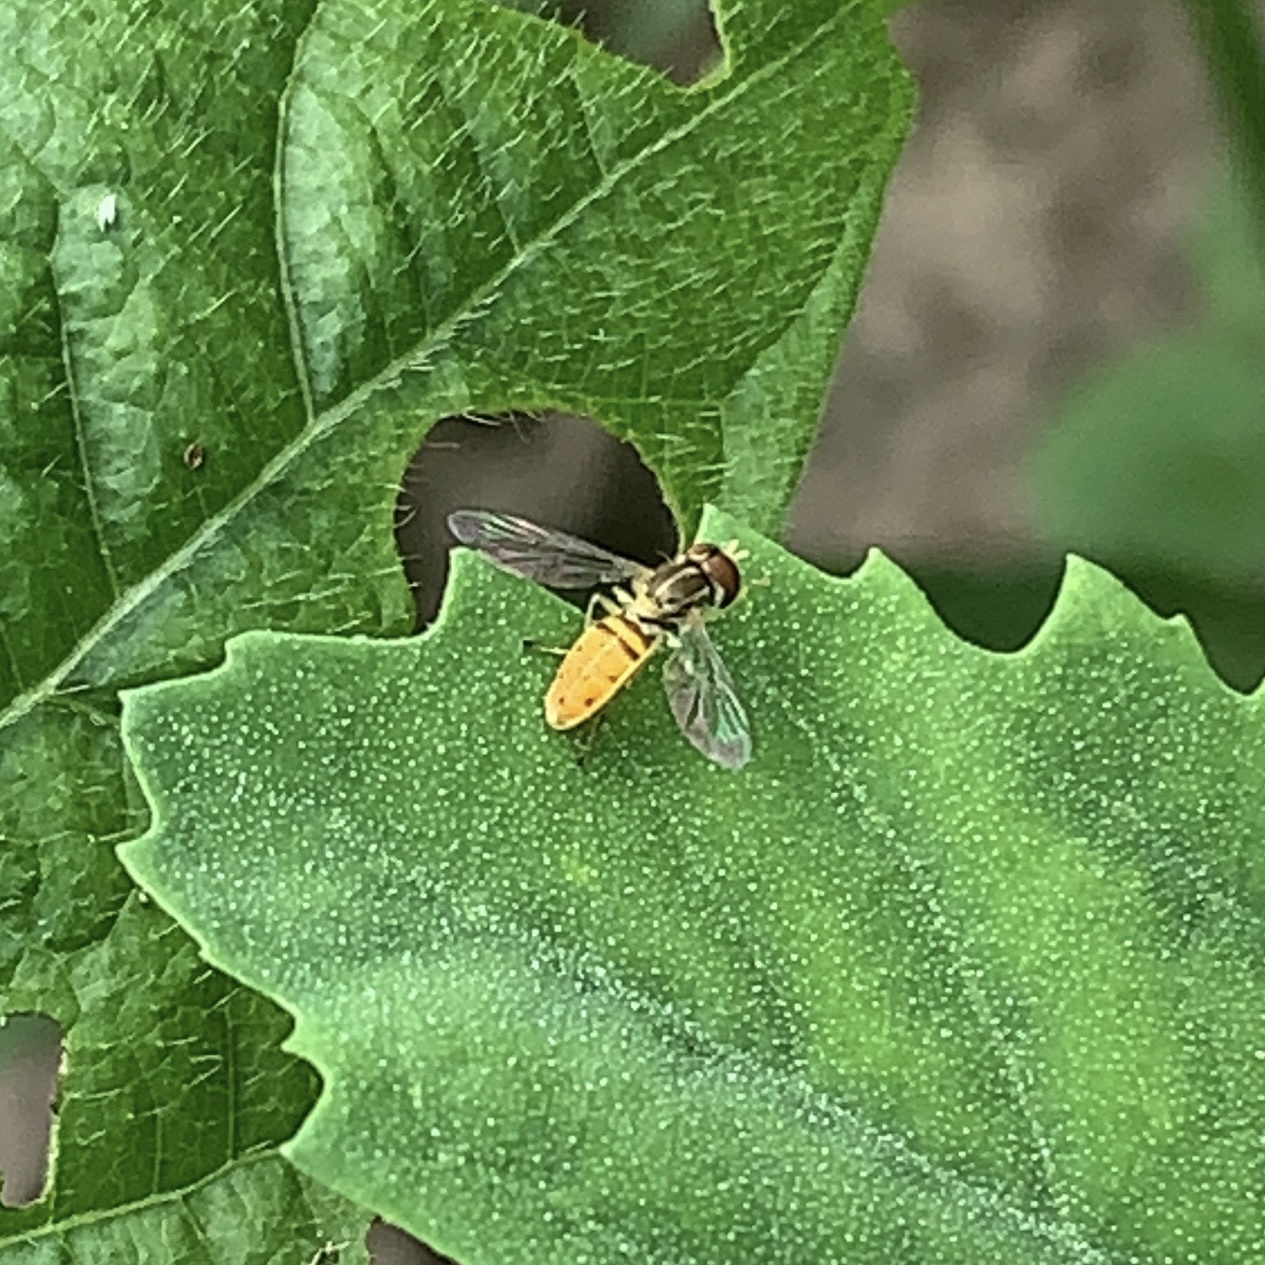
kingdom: Animalia
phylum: Arthropoda
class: Insecta
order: Diptera
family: Syrphidae
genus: Toxomerus
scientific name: Toxomerus marginatus
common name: Syrphid fly
